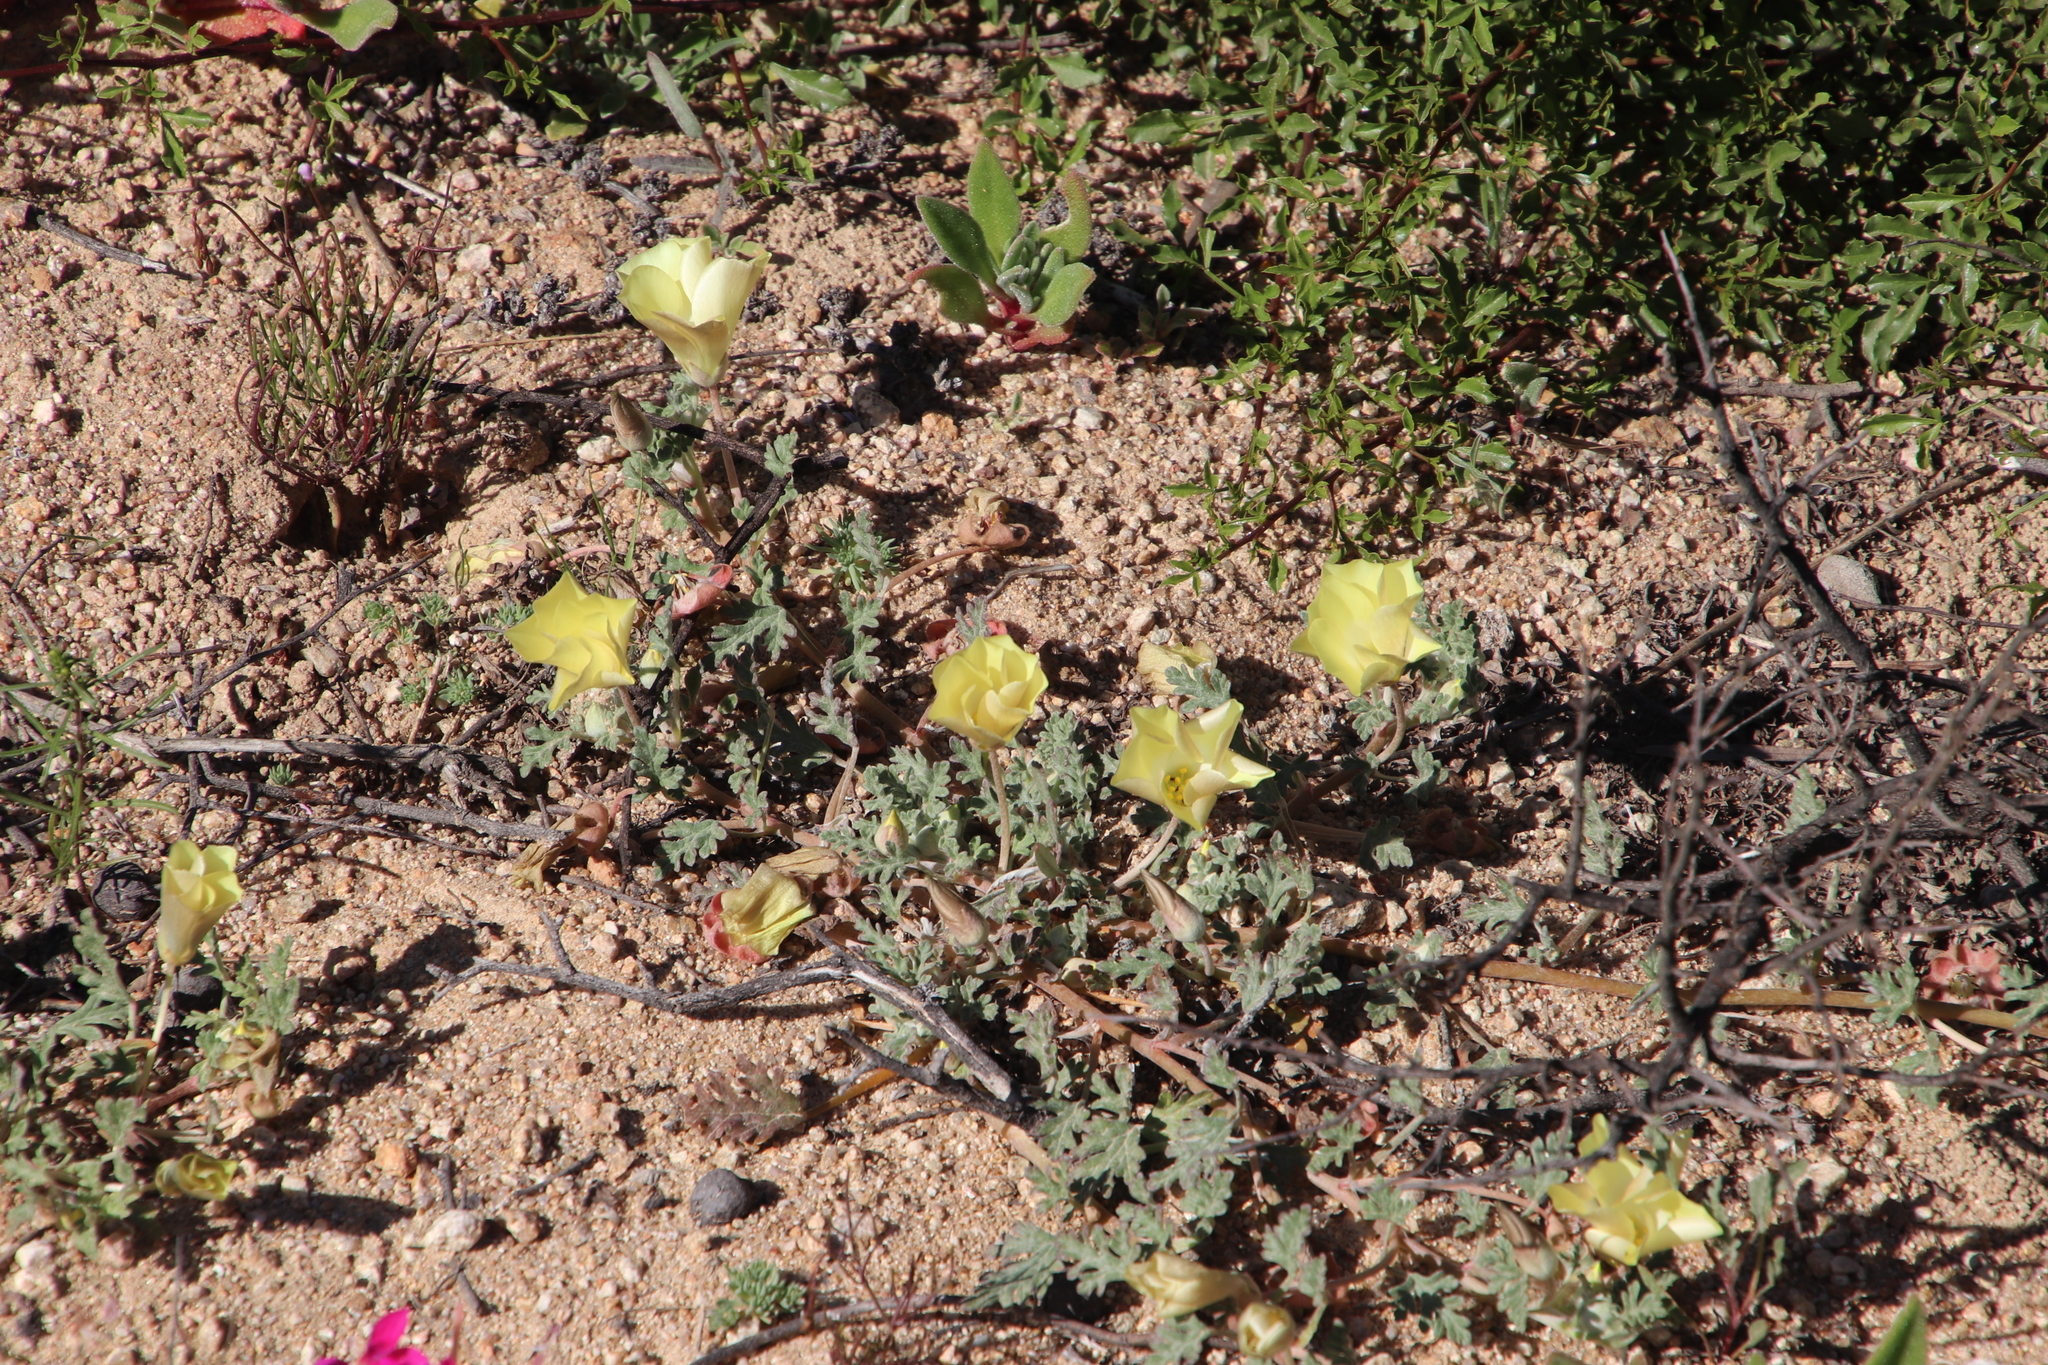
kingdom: Plantae
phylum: Tracheophyta
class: Magnoliopsida
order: Malvales
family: Neuradaceae
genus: Grielum
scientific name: Grielum humifusum
